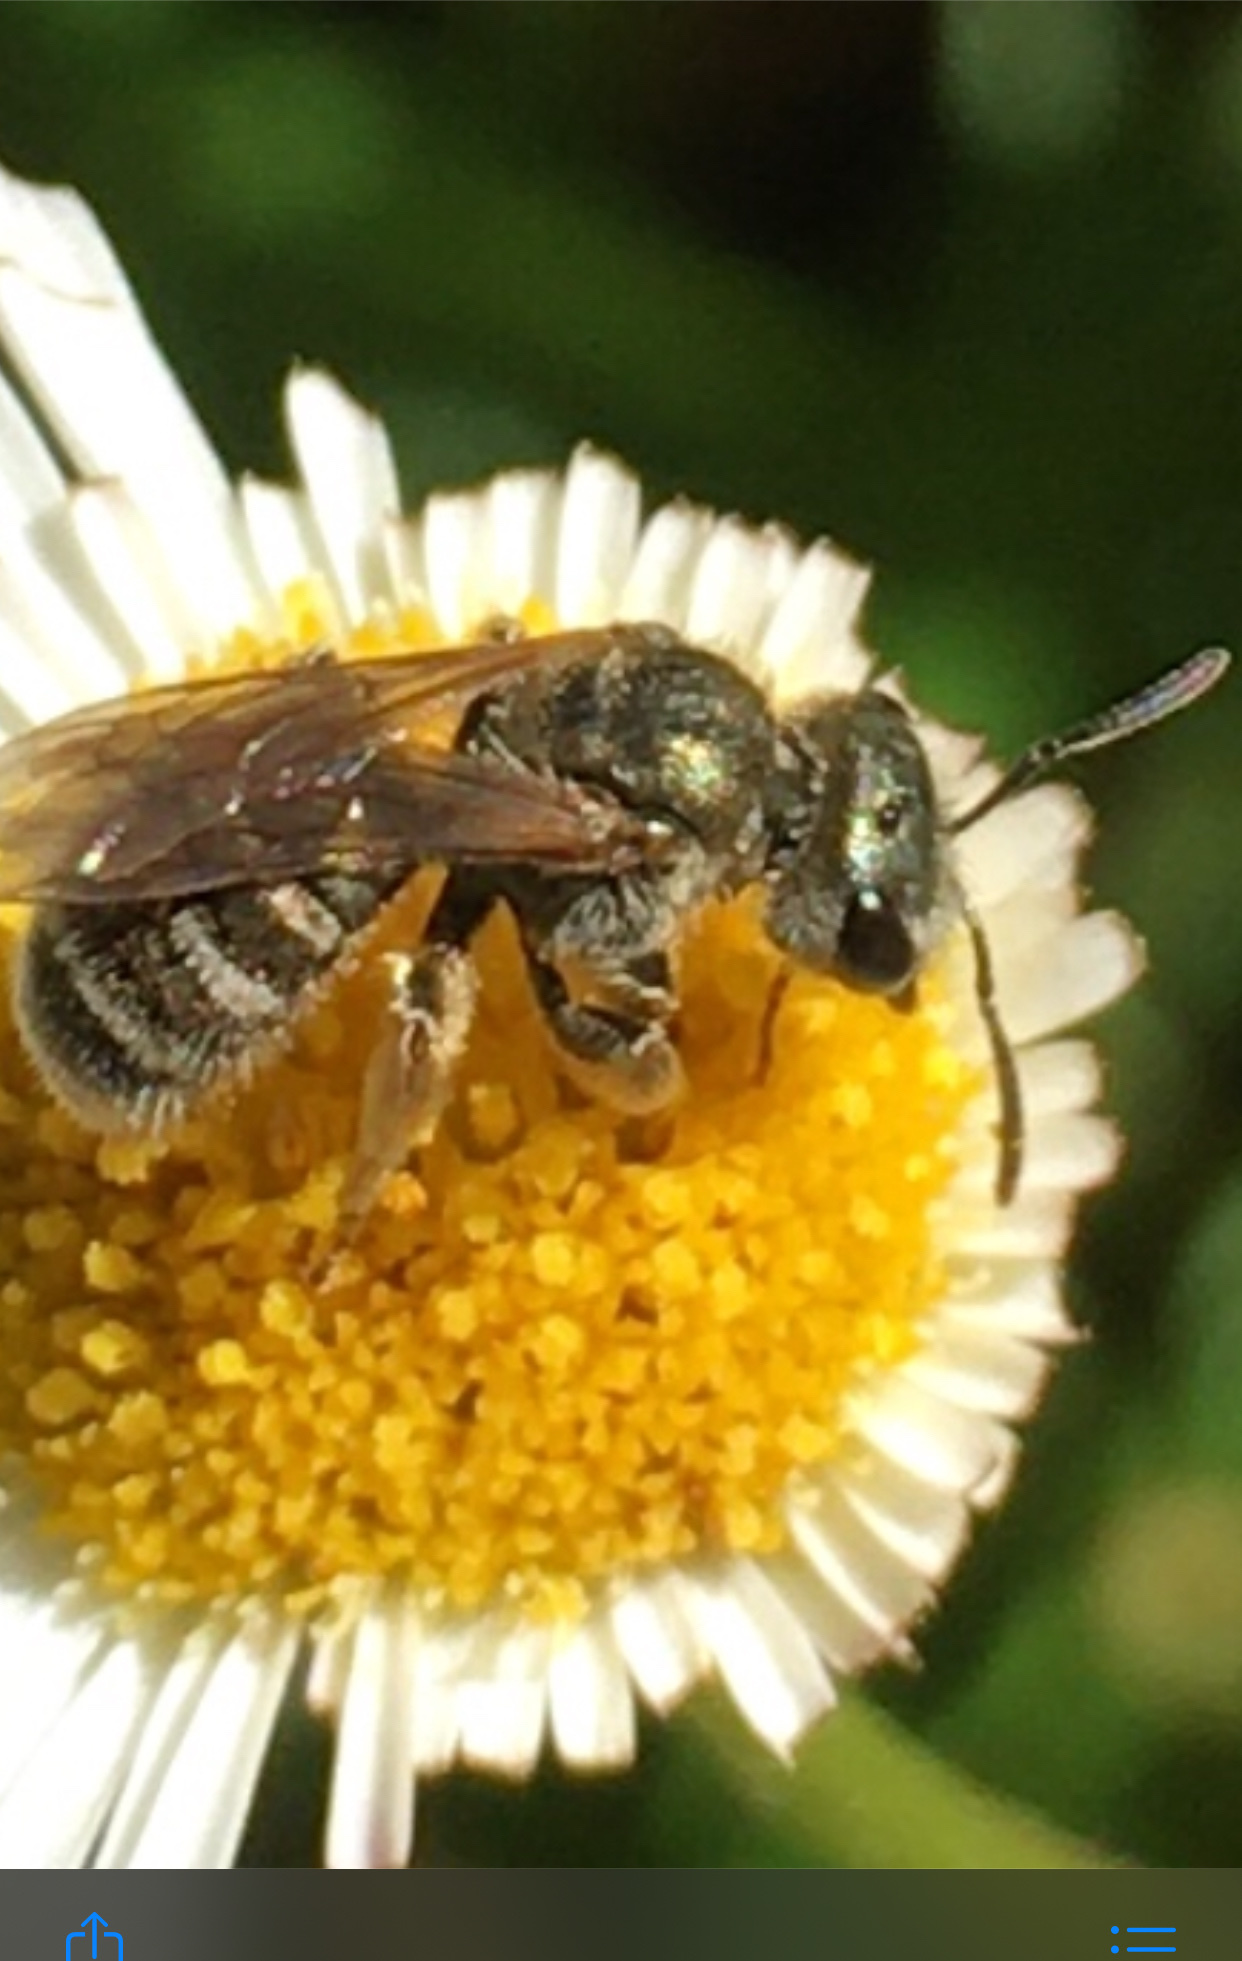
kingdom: Animalia
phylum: Arthropoda
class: Insecta
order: Hymenoptera
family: Halictidae
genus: Halictus
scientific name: Halictus tripartitus
